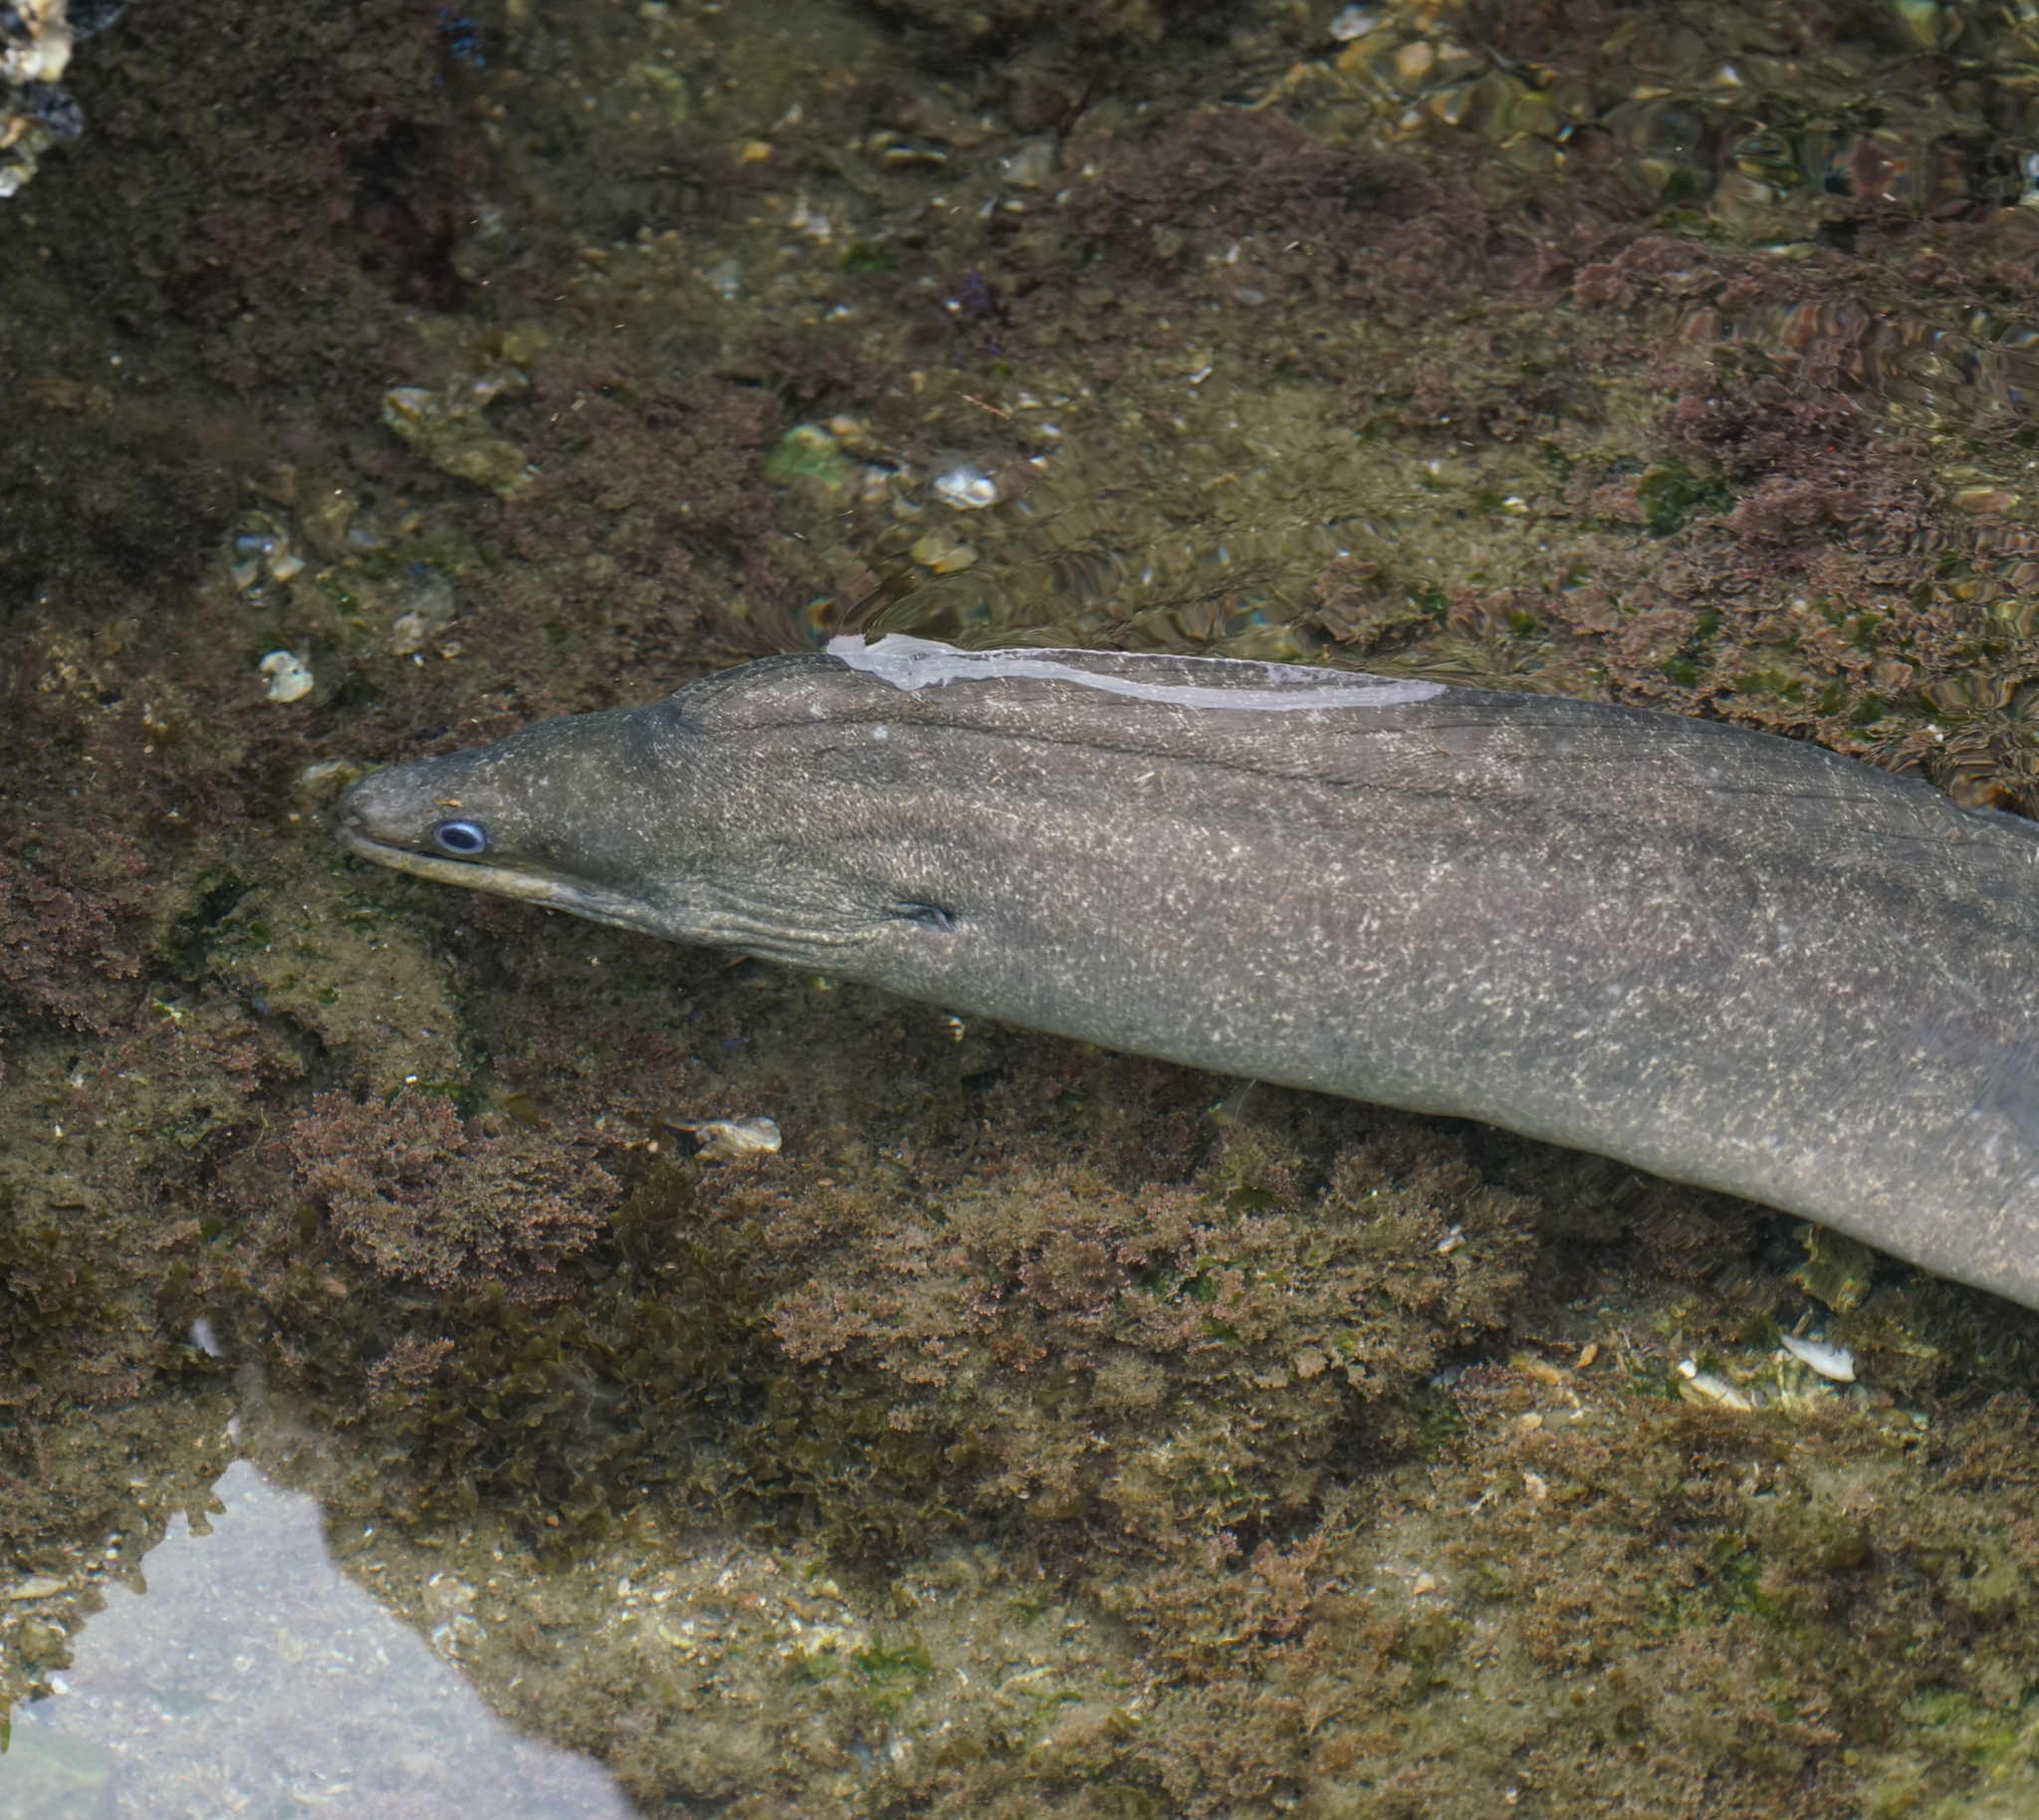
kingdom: Animalia
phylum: Chordata
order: Anguilliformes
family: Muraenidae
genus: Gymnothorax
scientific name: Gymnothorax pseudothyrsoideus
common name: Highfin moray
